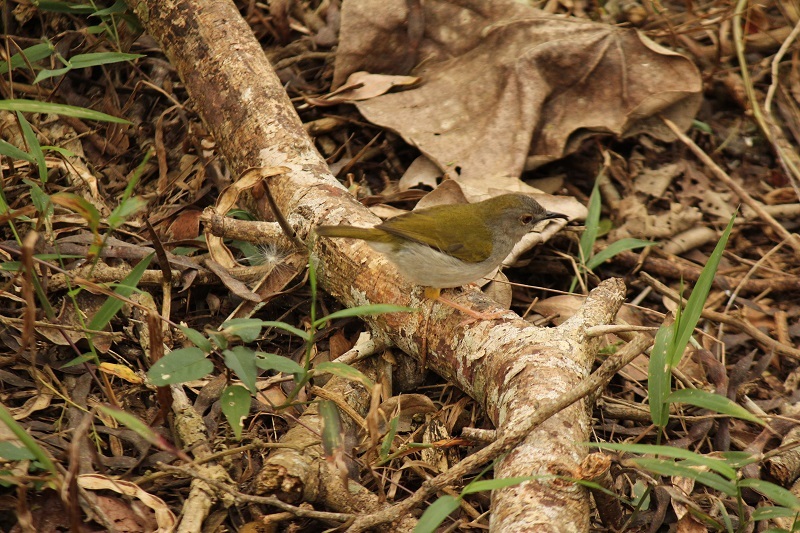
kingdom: Animalia
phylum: Chordata
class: Aves
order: Passeriformes
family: Cisticolidae
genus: Camaroptera
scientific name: Camaroptera brachyura
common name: Green-backed camaroptera
